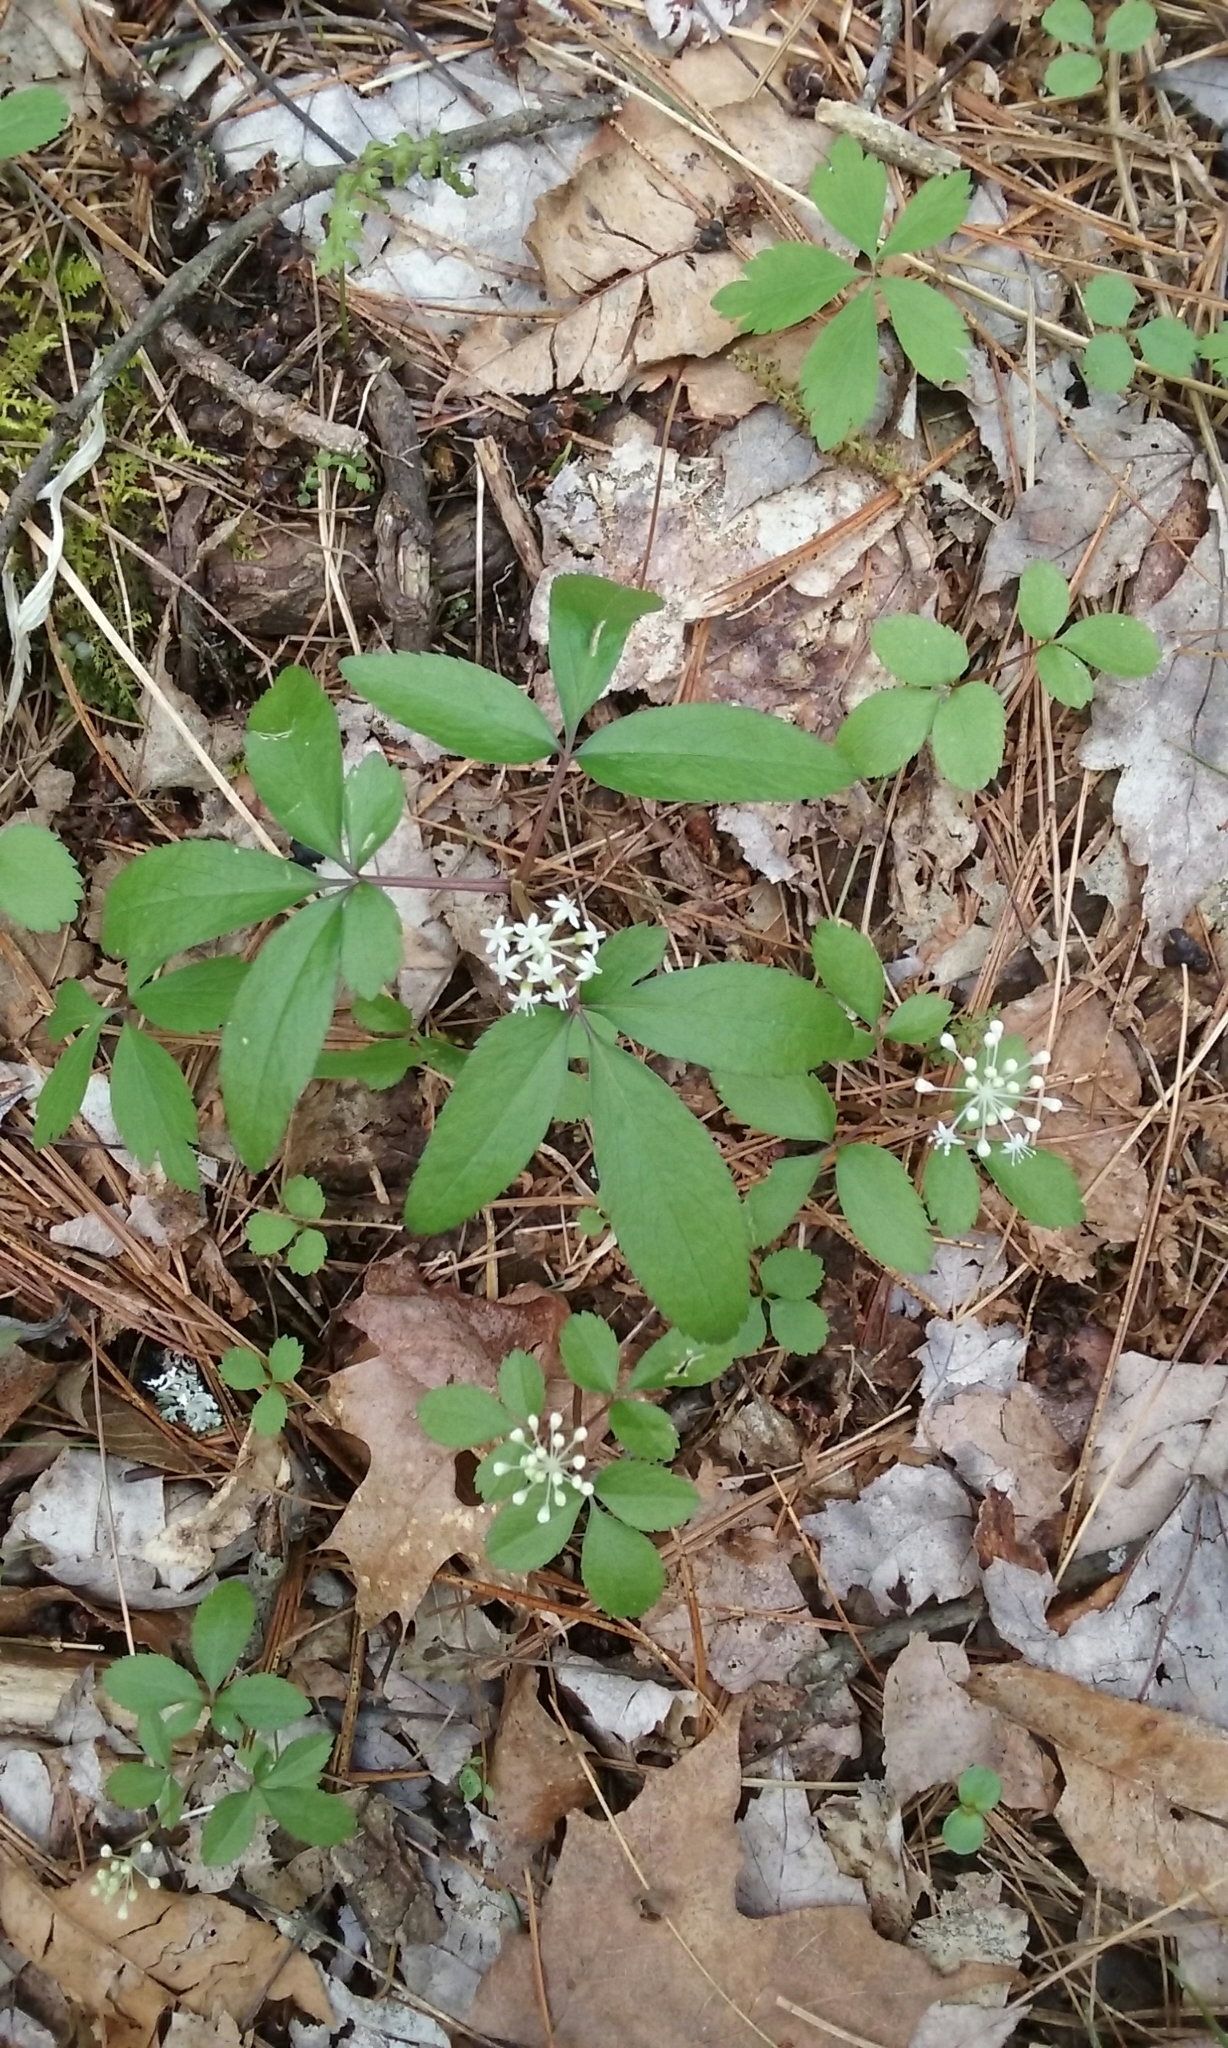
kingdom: Plantae
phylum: Tracheophyta
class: Magnoliopsida
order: Apiales
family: Araliaceae
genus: Panax
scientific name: Panax trifolius
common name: Dwarf ginseng
